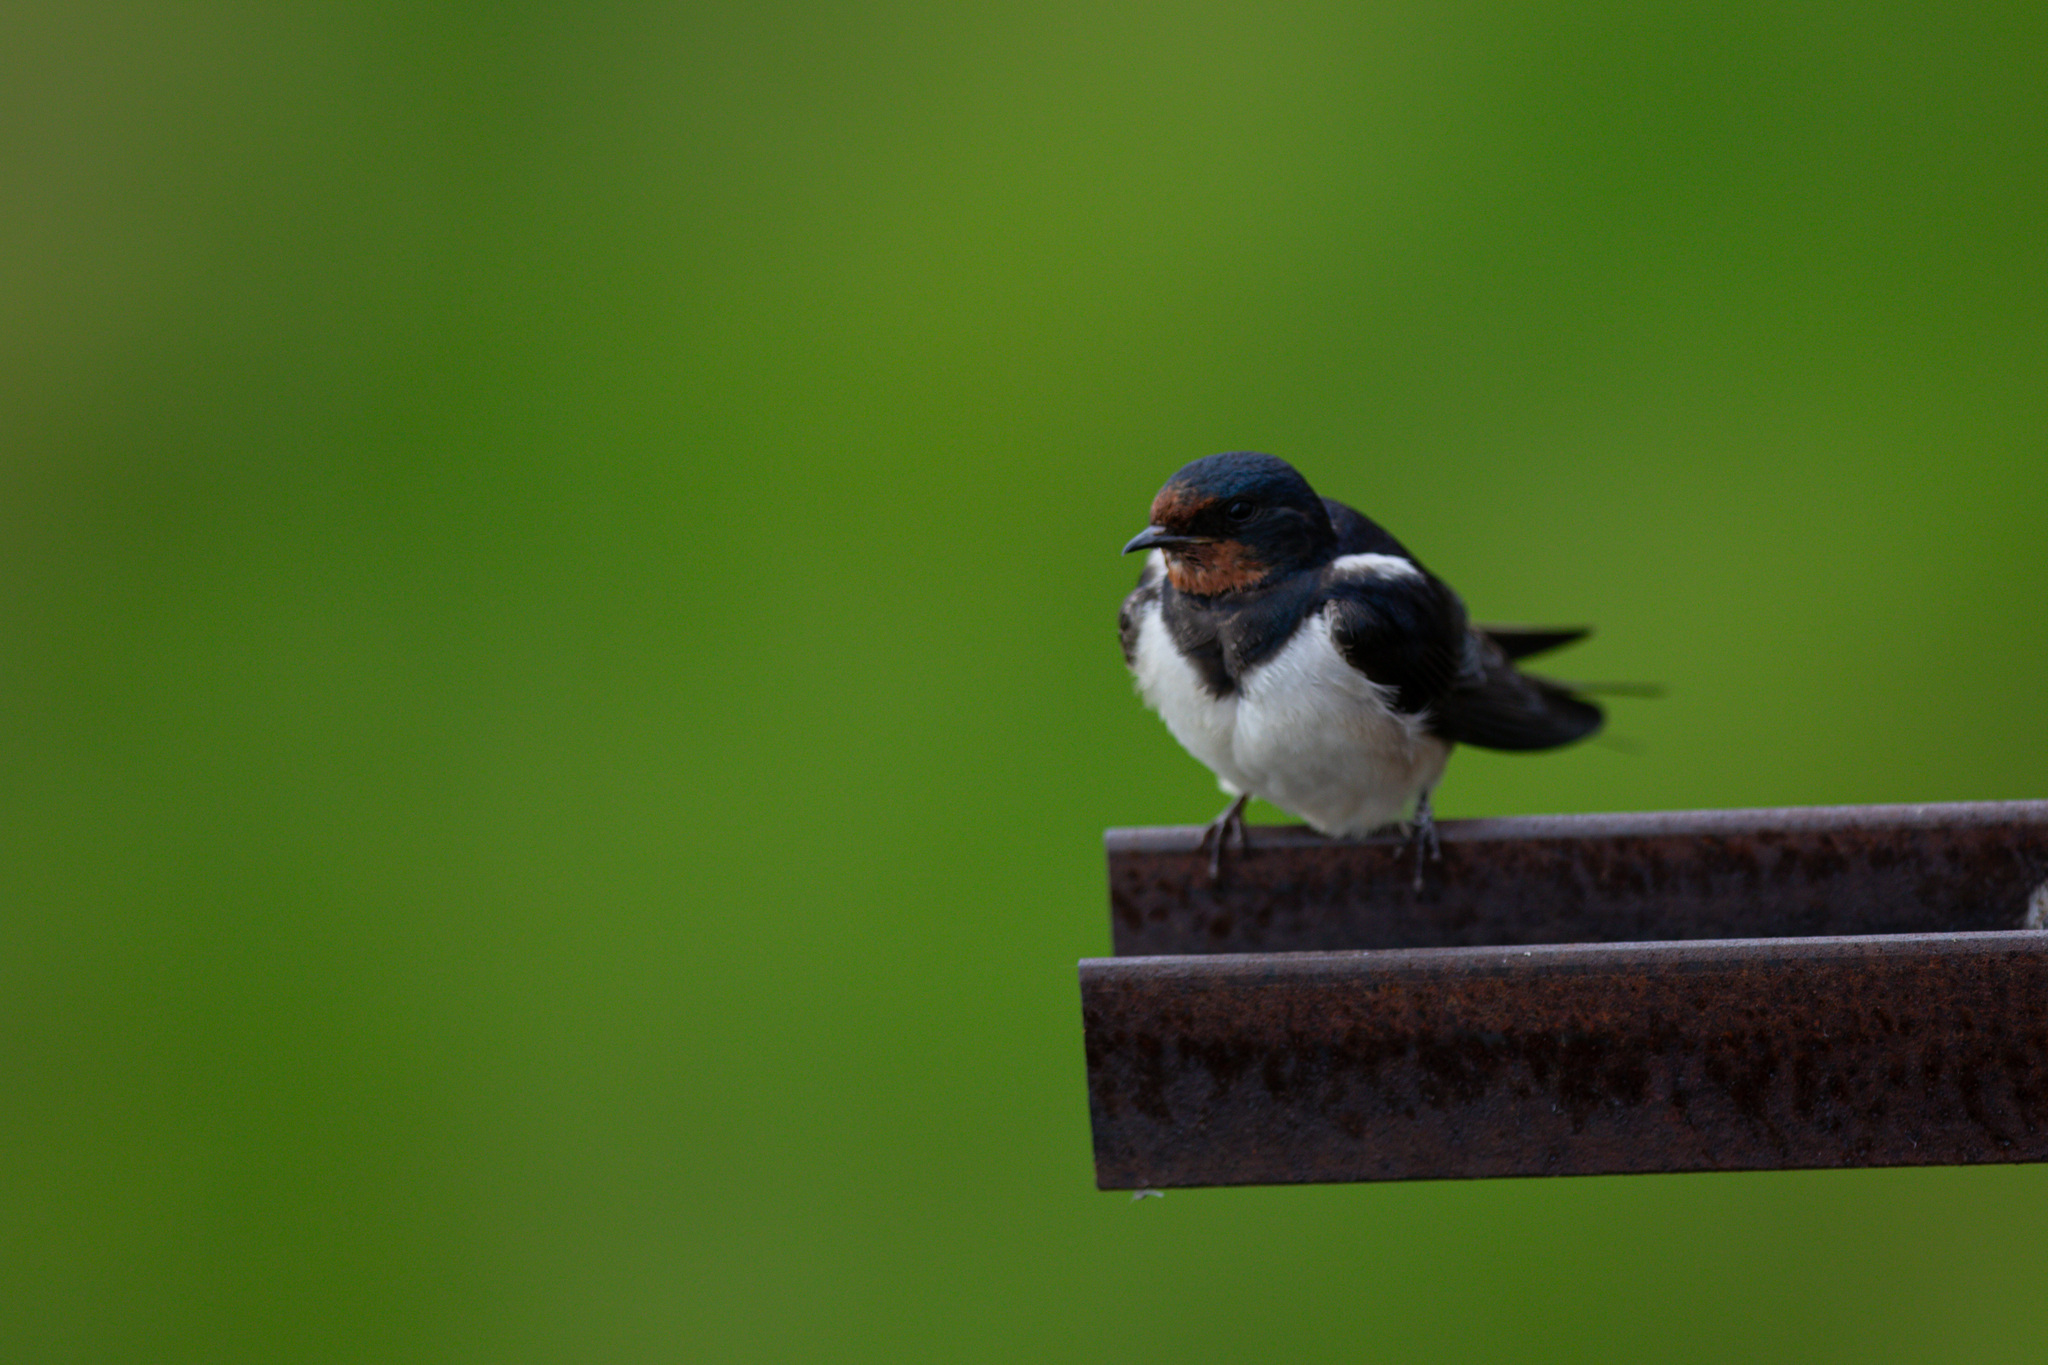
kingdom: Animalia
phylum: Chordata
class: Aves
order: Passeriformes
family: Hirundinidae
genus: Hirundo
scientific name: Hirundo rustica
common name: Barn swallow
